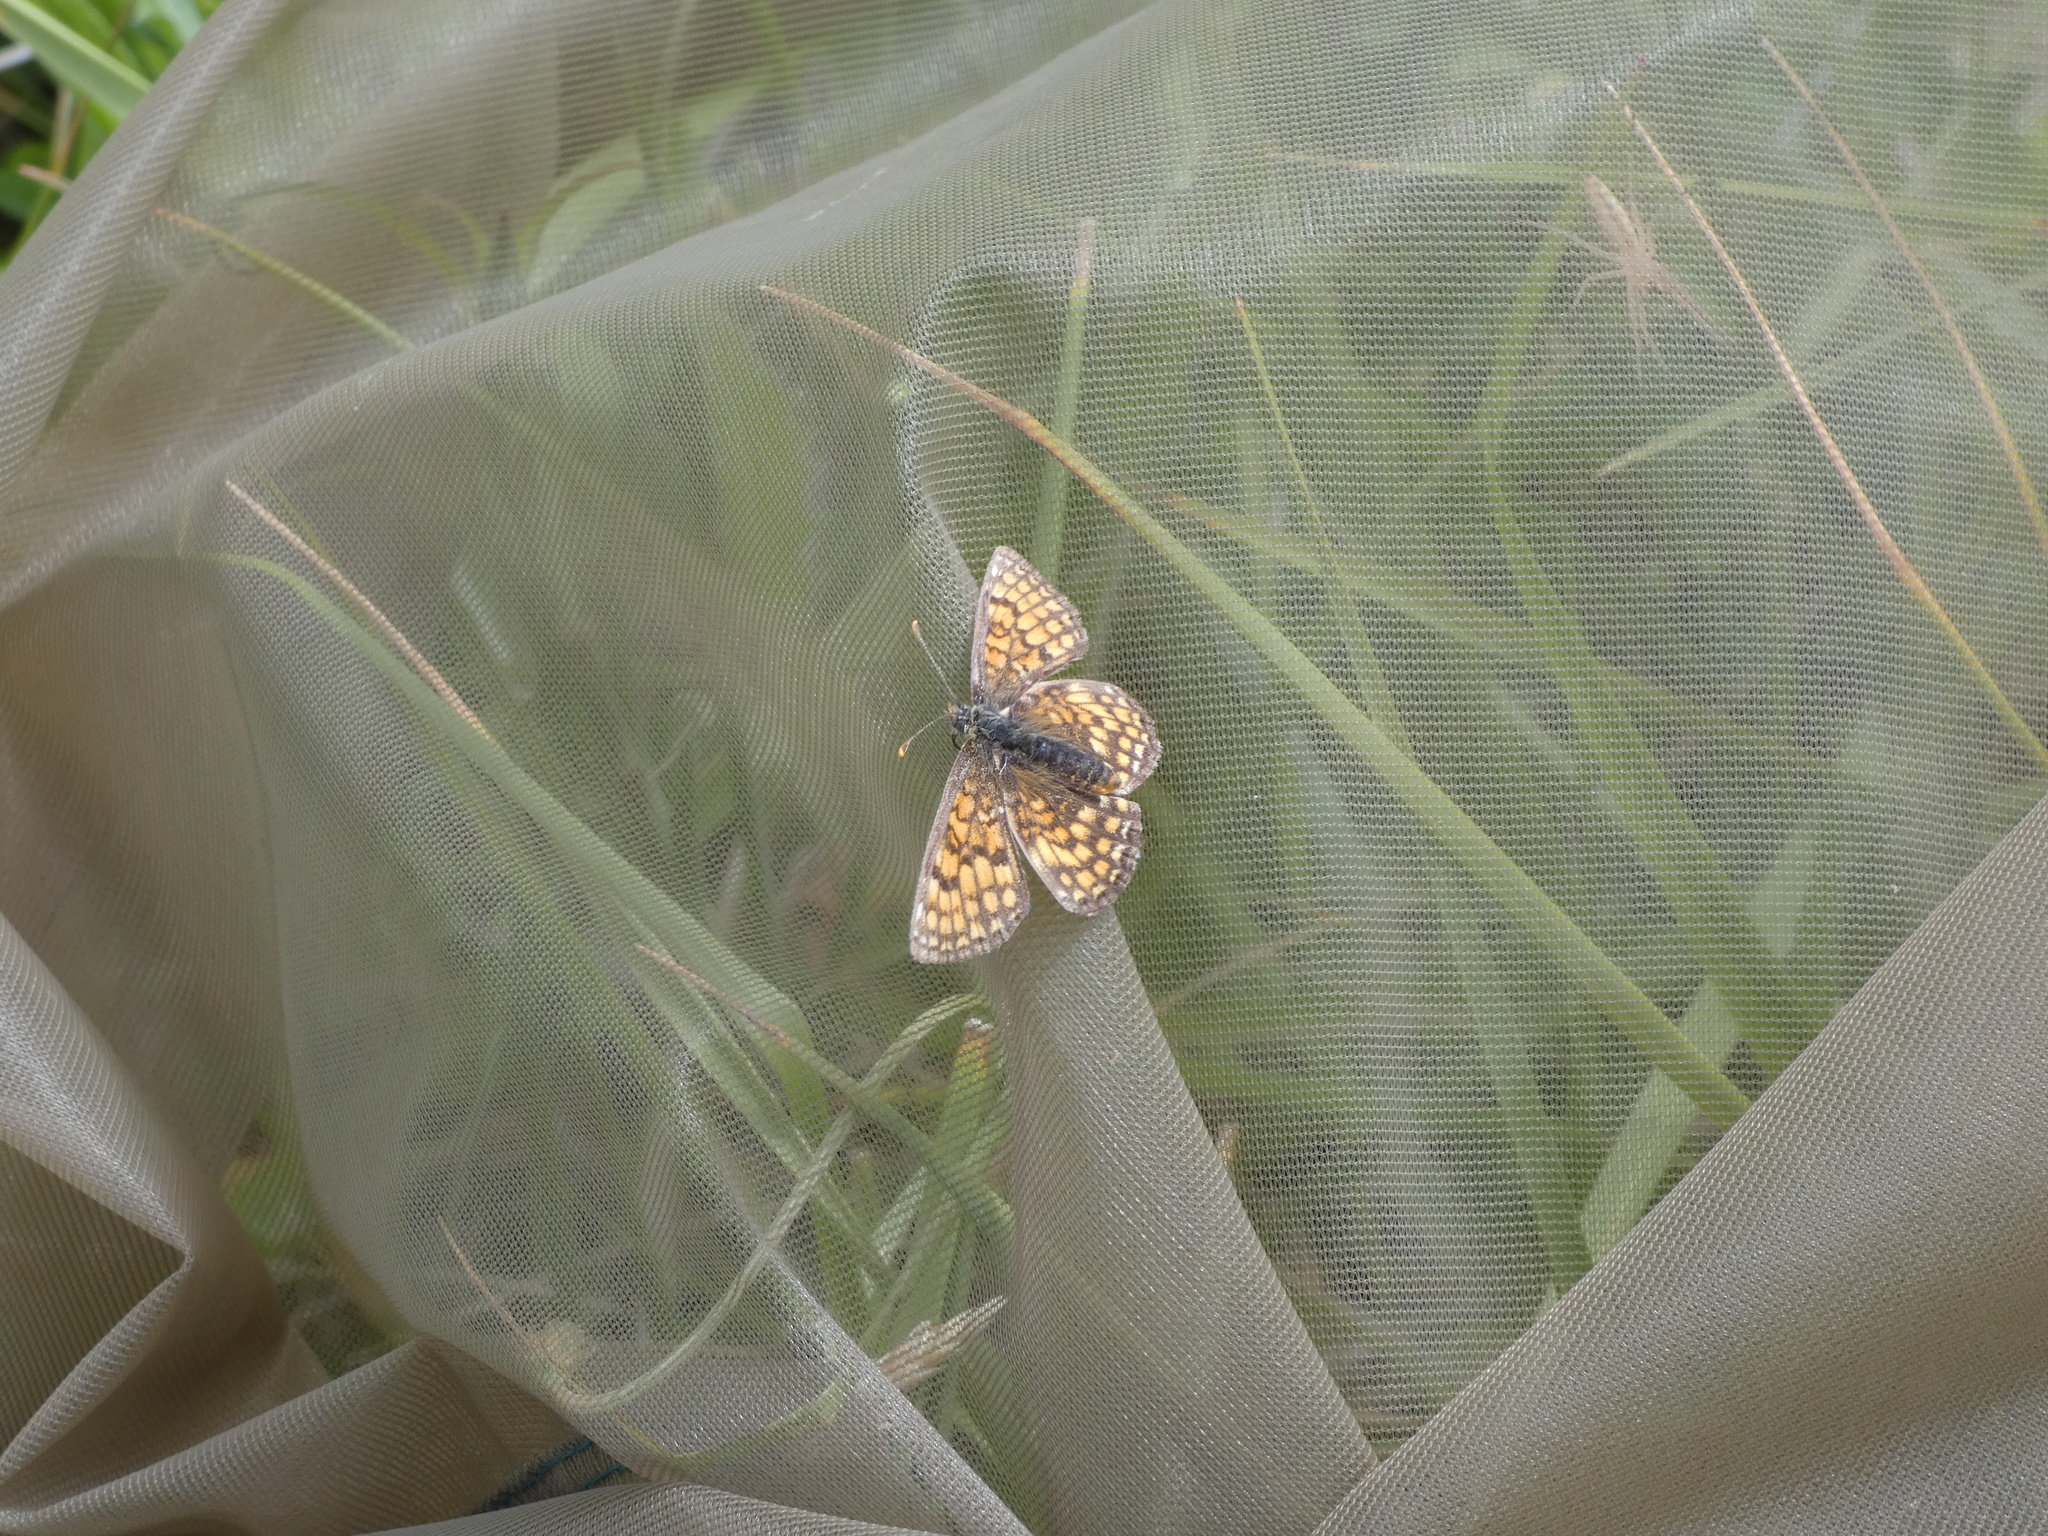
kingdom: Animalia
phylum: Arthropoda
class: Insecta
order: Lepidoptera
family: Nymphalidae
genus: Melitaea
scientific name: Melitaea phoebe
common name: Knapweed fritillary
